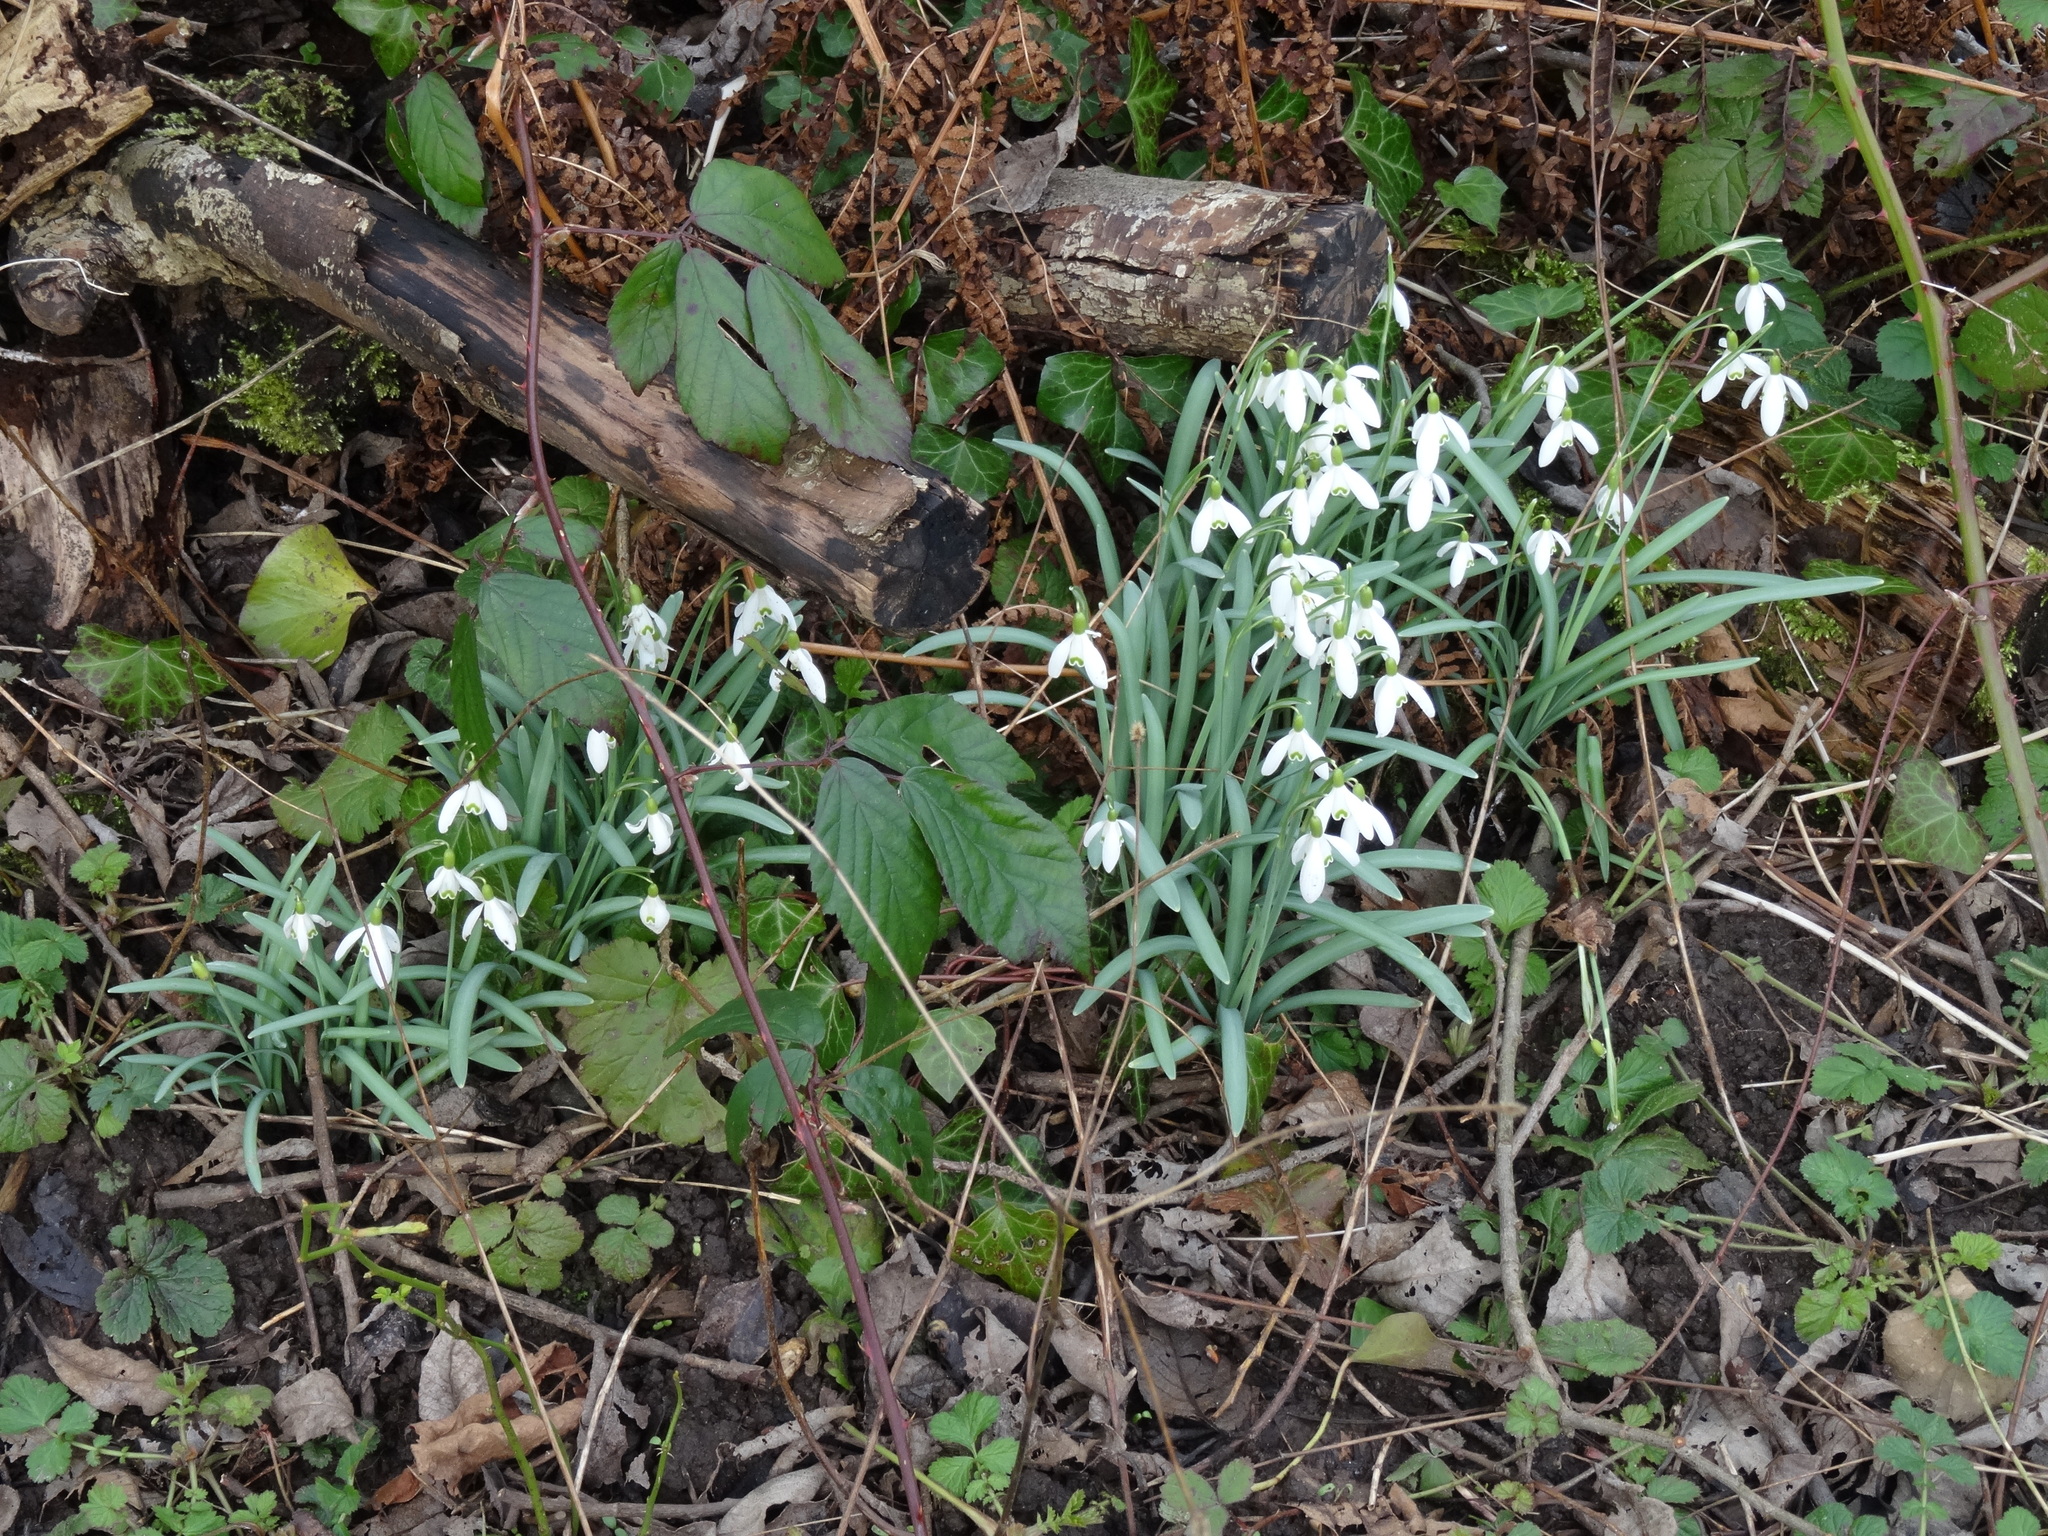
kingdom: Plantae
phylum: Tracheophyta
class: Liliopsida
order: Asparagales
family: Amaryllidaceae
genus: Galanthus
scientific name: Galanthus nivalis
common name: Snowdrop
